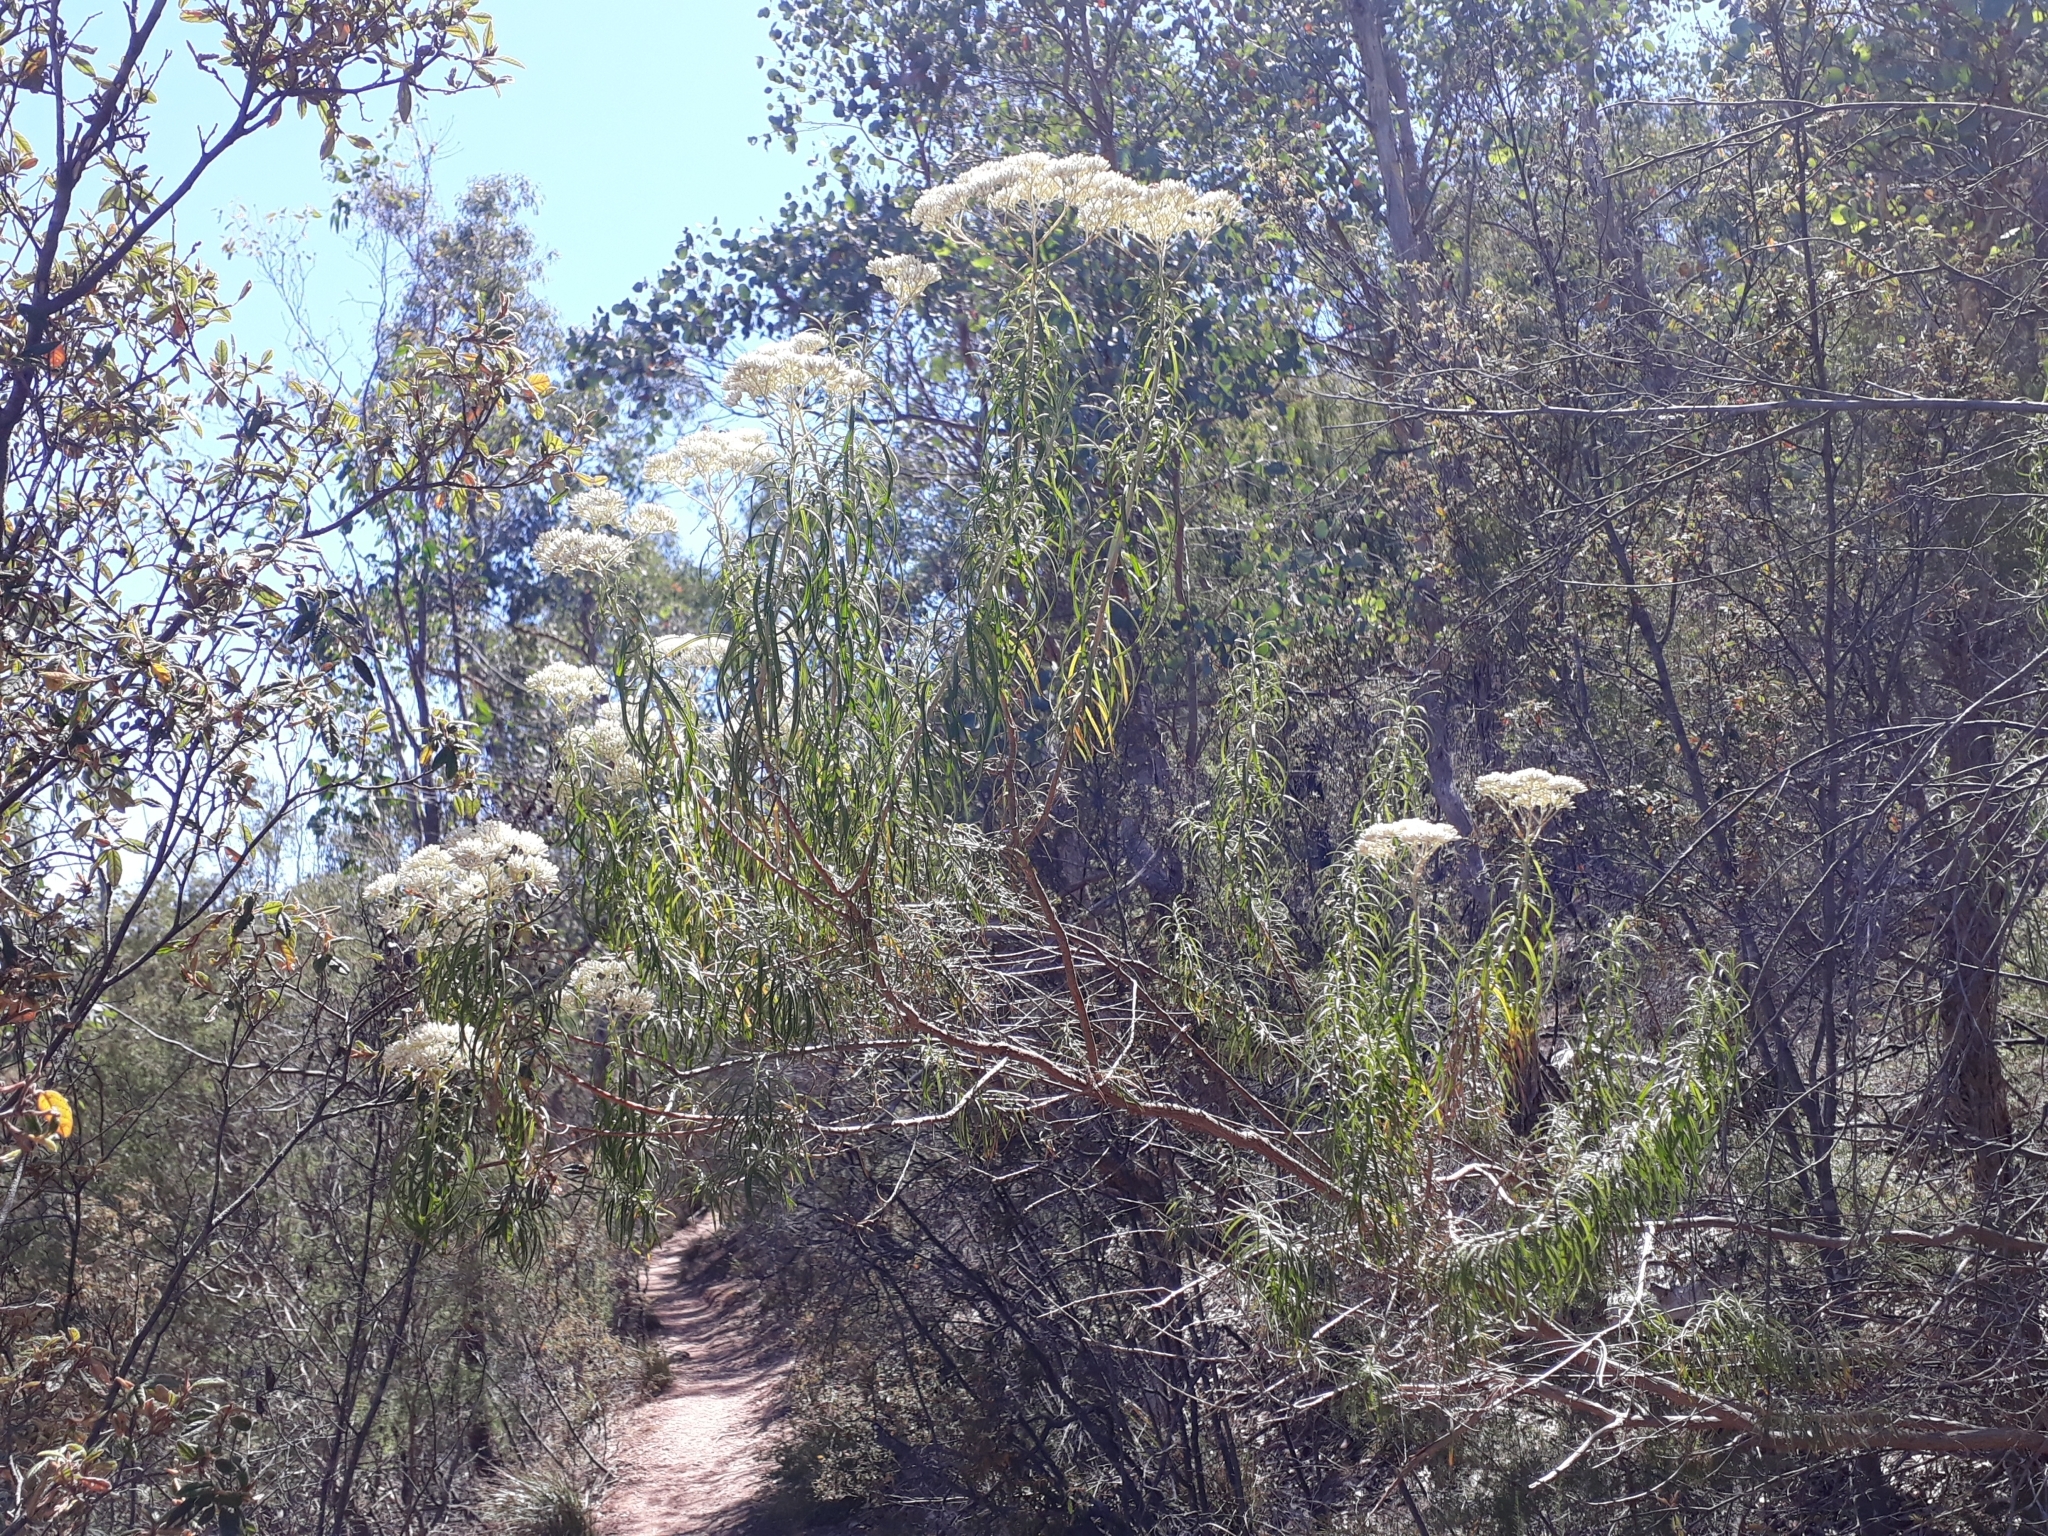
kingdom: Plantae
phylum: Tracheophyta
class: Magnoliopsida
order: Asterales
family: Asteraceae
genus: Cassinia
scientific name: Cassinia longifolia
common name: Longleaf-dogwood
